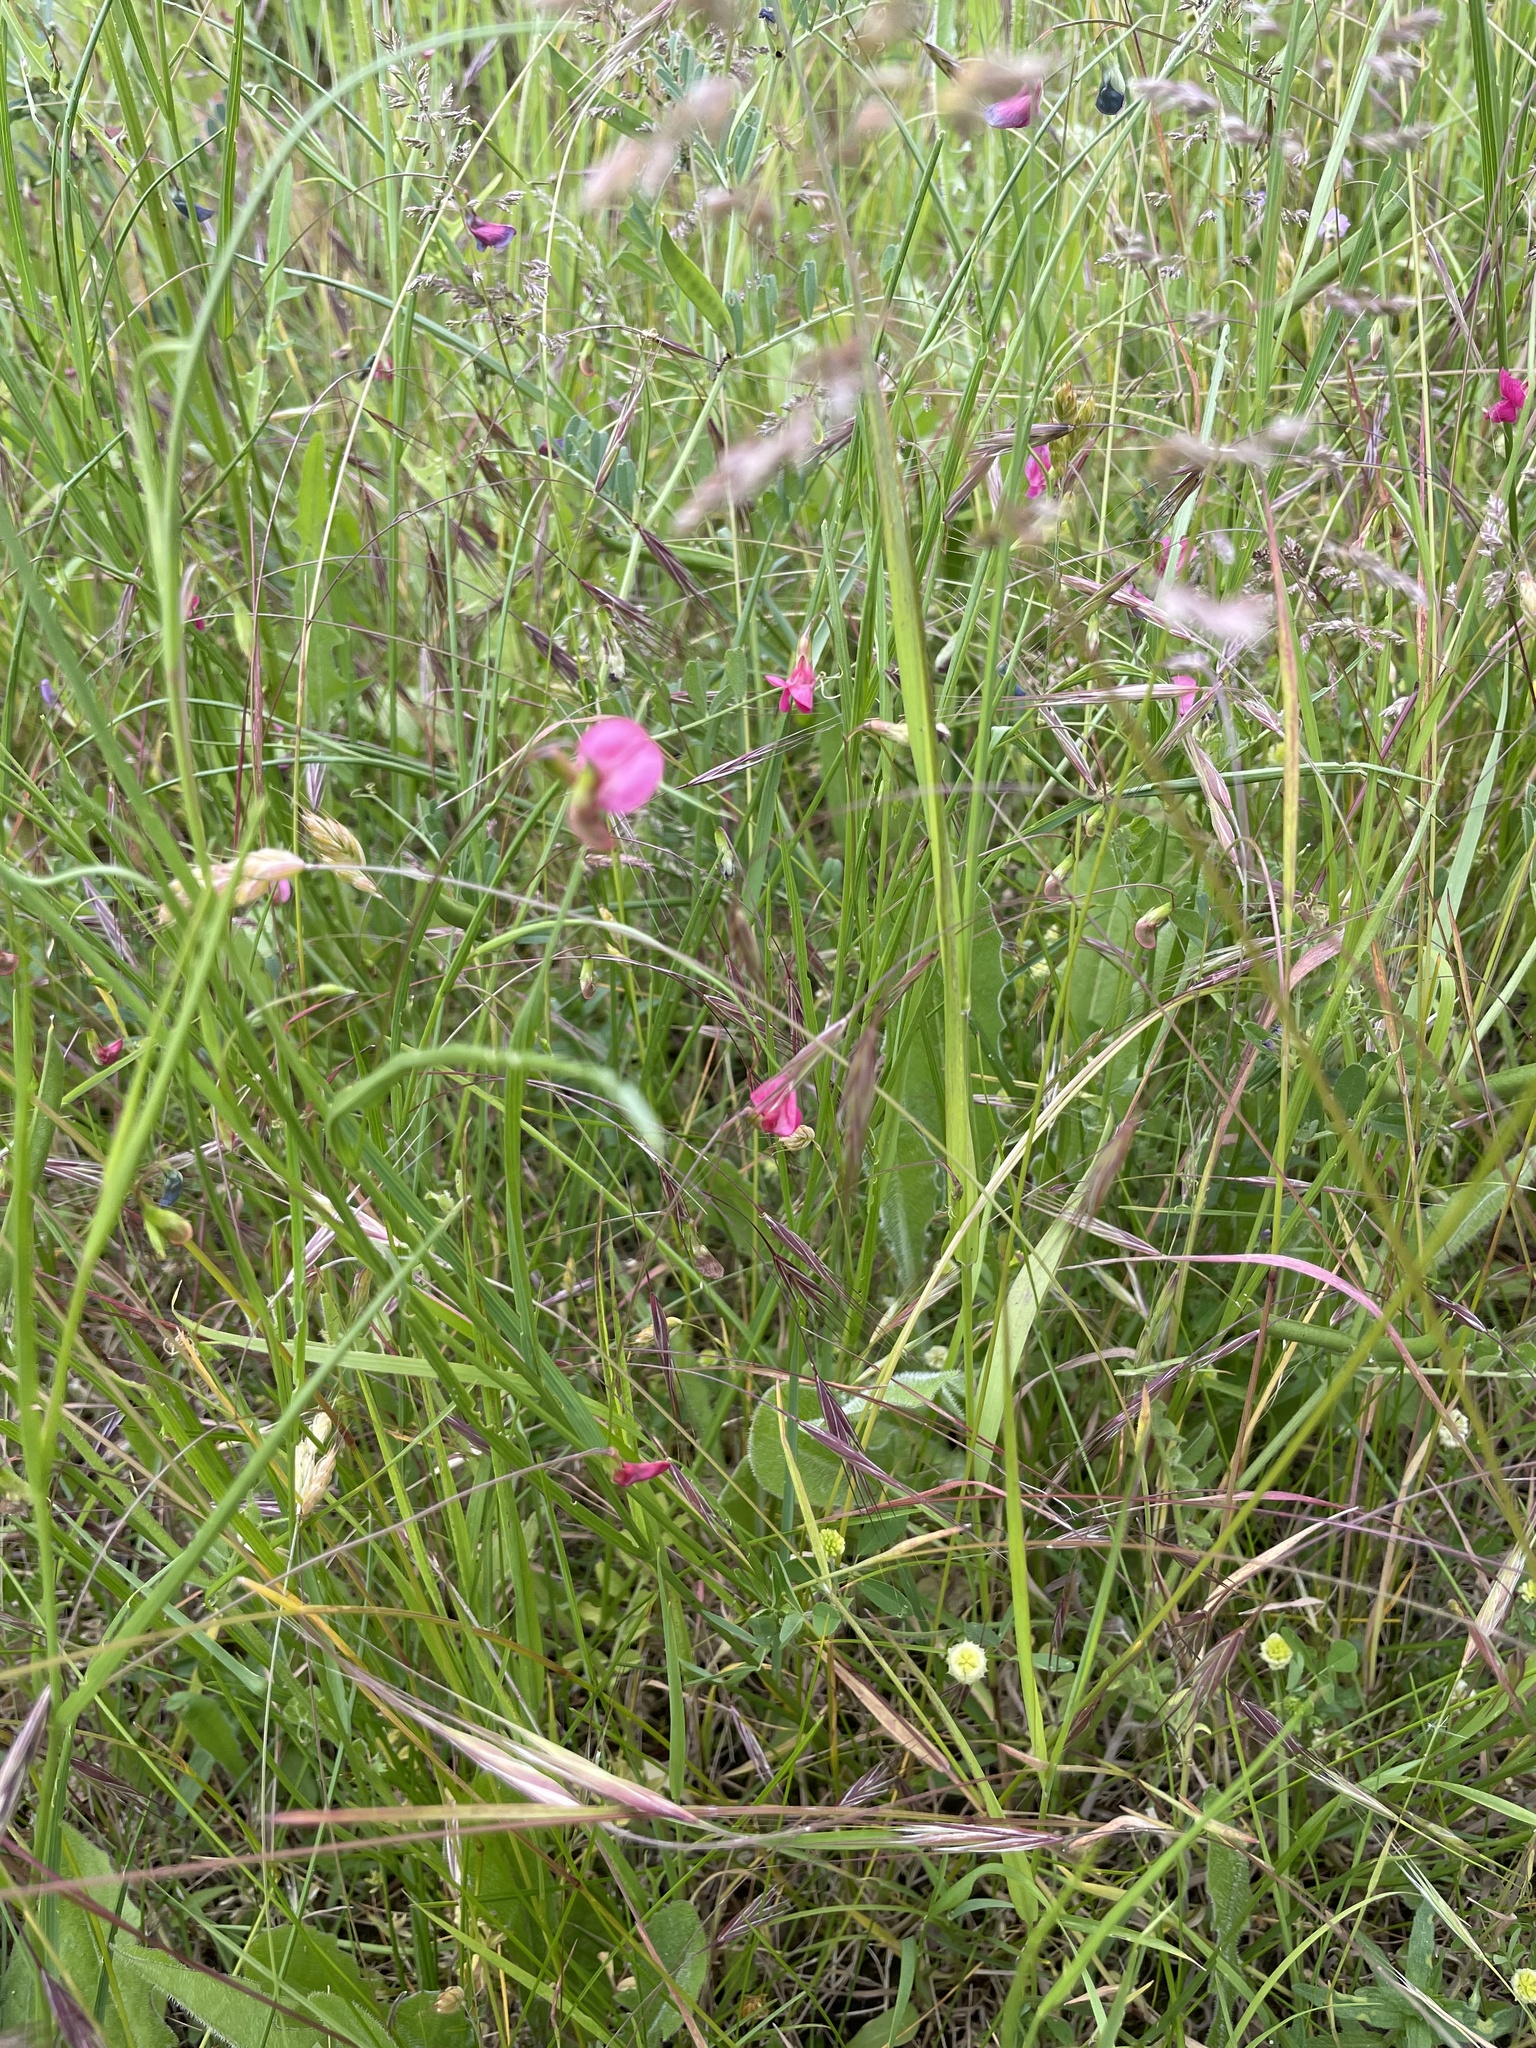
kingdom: Plantae
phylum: Tracheophyta
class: Magnoliopsida
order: Fabales
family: Fabaceae
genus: Lathyrus
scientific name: Lathyrus nissolia
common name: Grass vetchling
